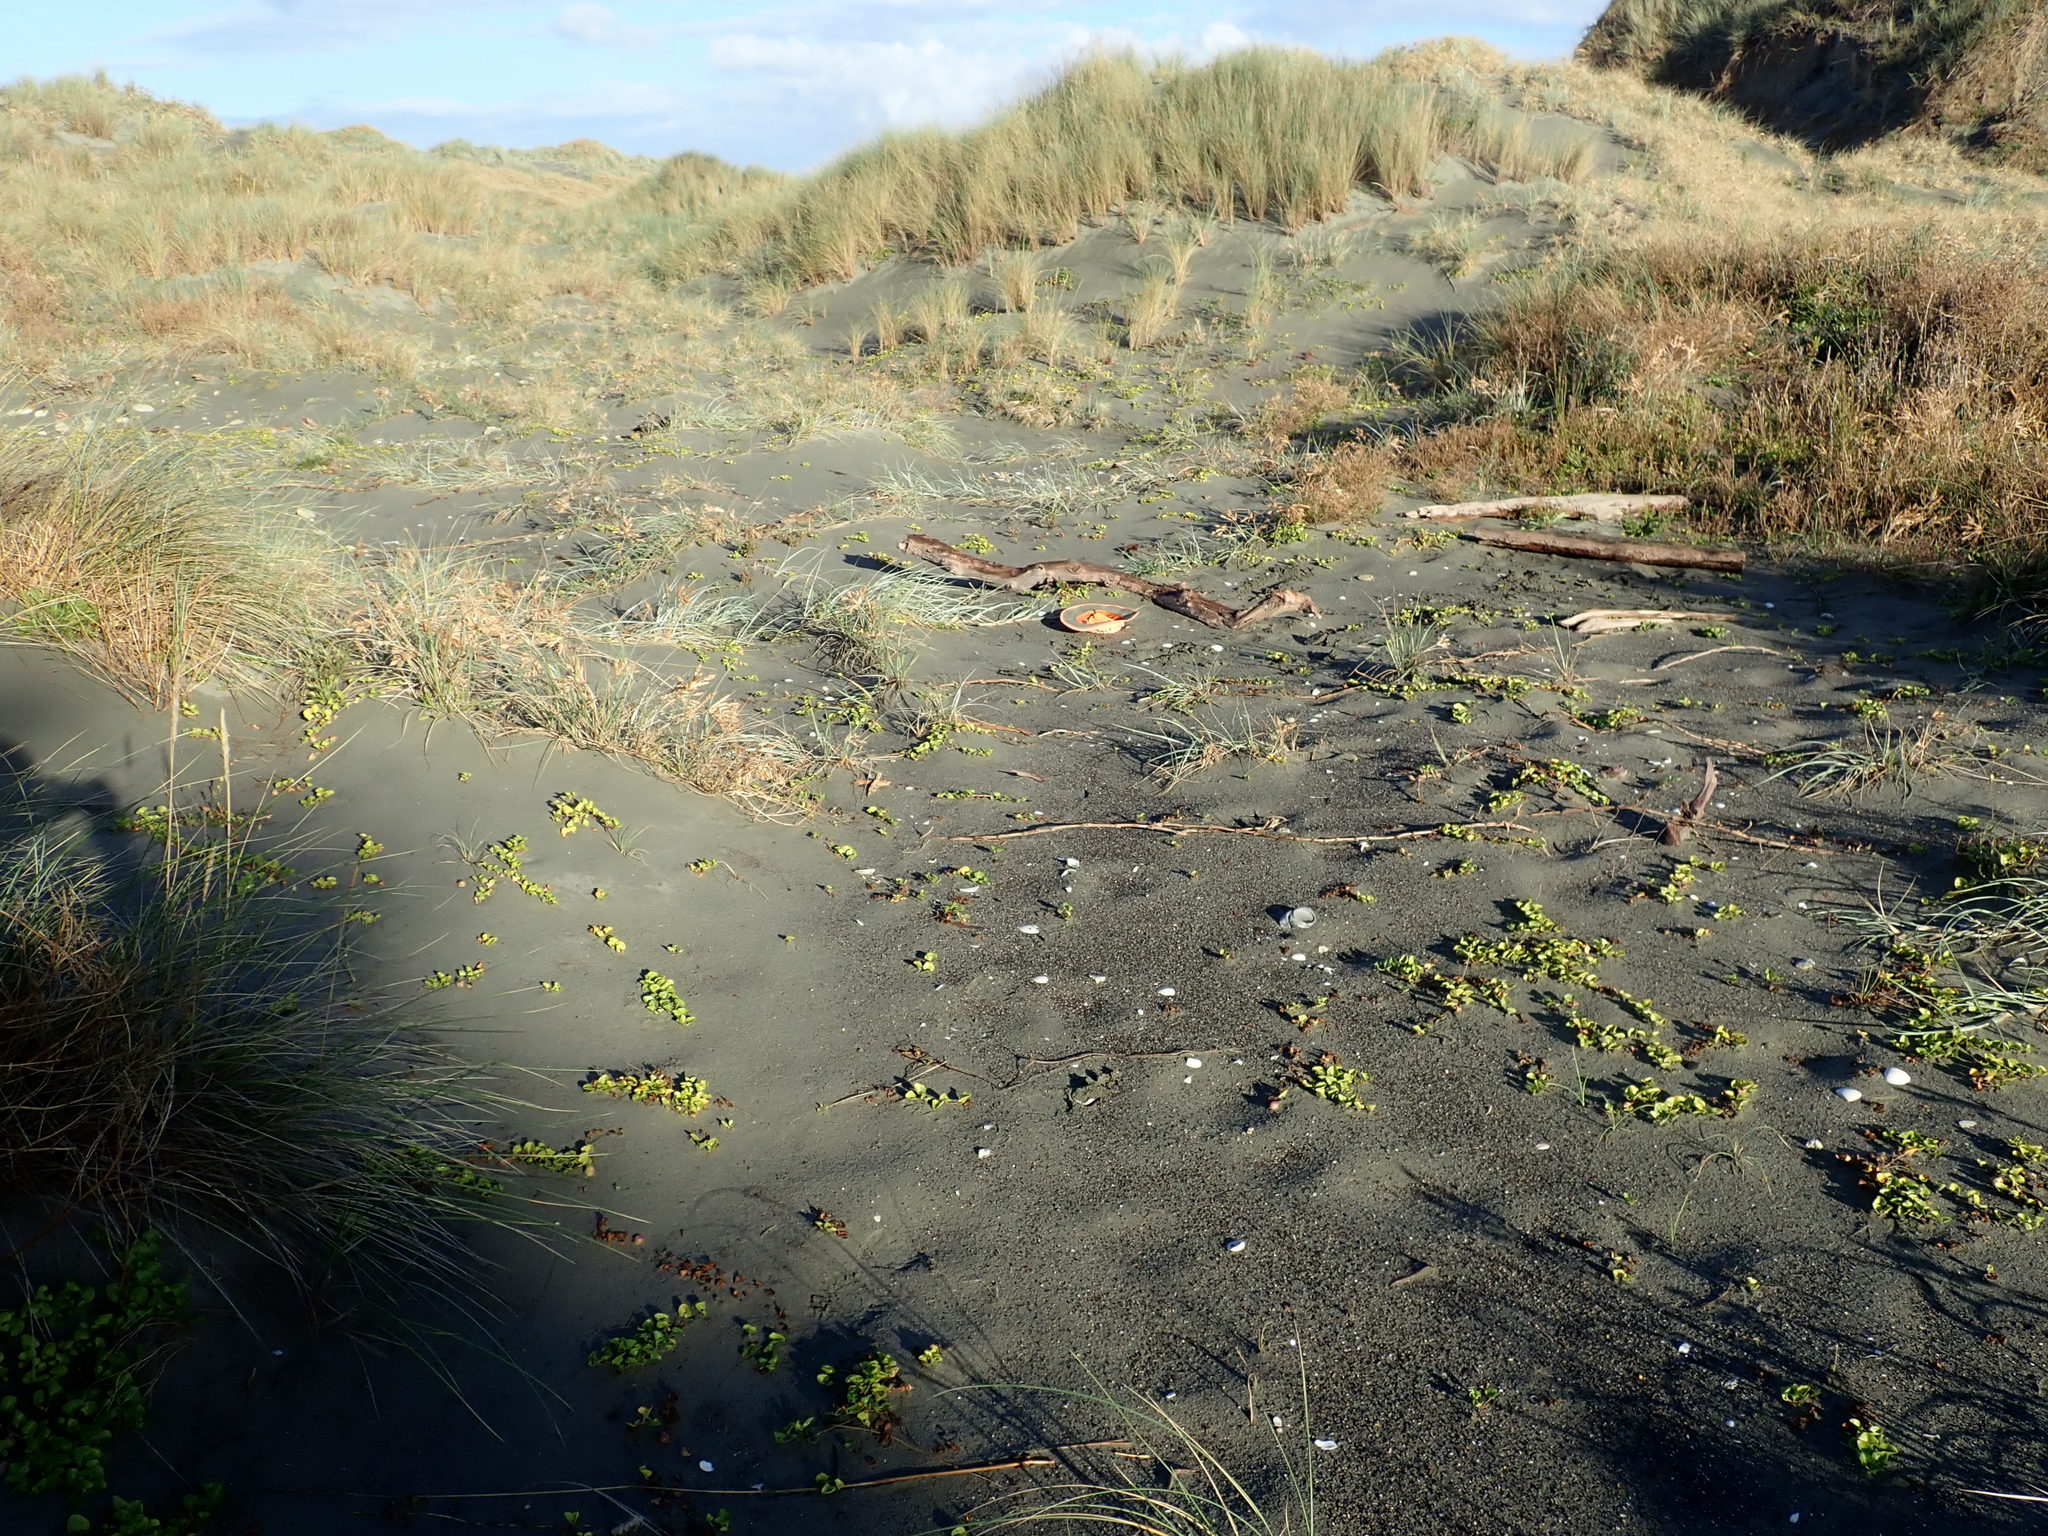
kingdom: Plantae
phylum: Tracheophyta
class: Magnoliopsida
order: Ranunculales
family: Ranunculaceae
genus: Ranunculus
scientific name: Ranunculus acaulis
